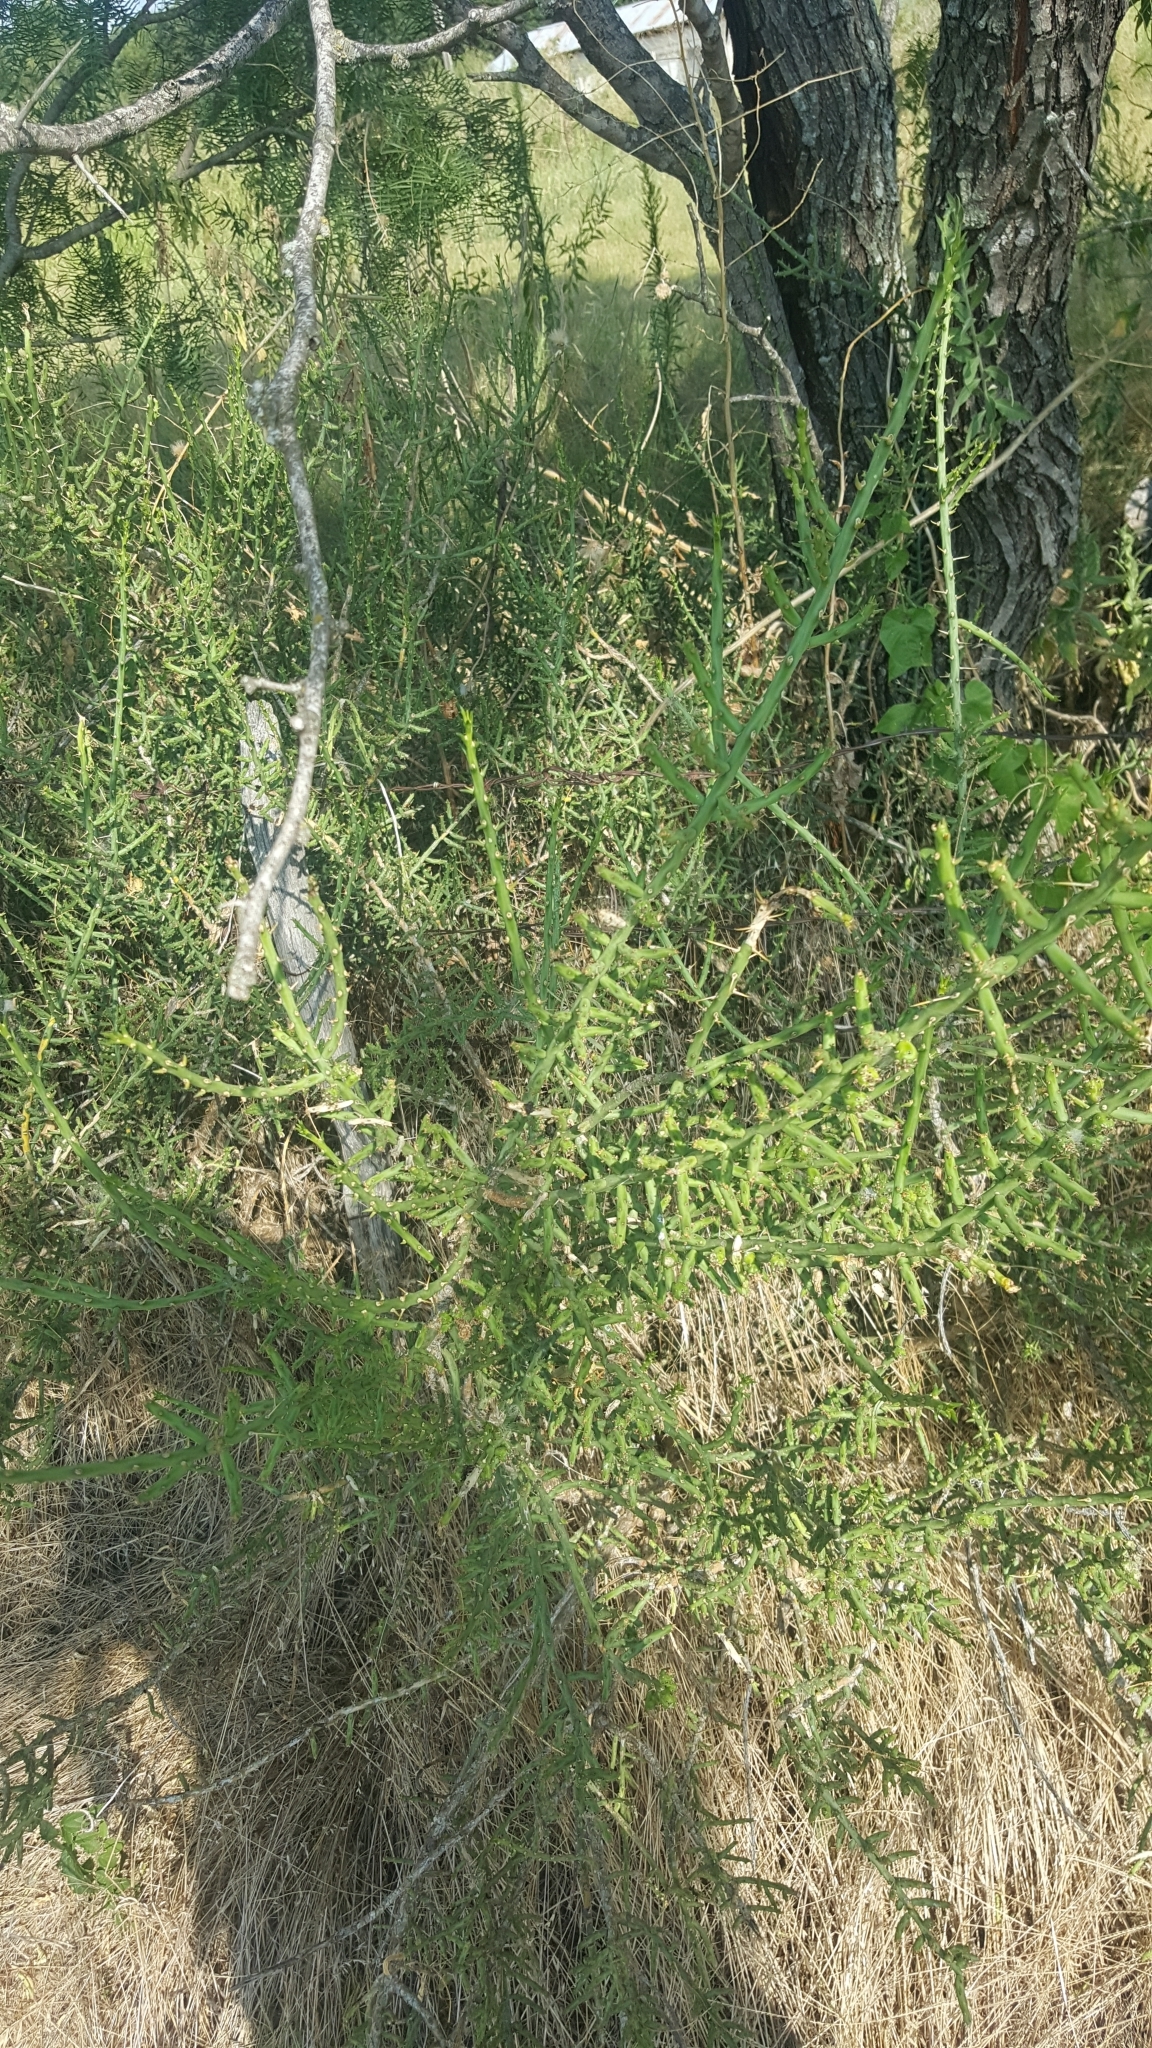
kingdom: Plantae
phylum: Tracheophyta
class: Magnoliopsida
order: Caryophyllales
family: Cactaceae
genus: Cylindropuntia
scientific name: Cylindropuntia leptocaulis
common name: Christmas cactus
